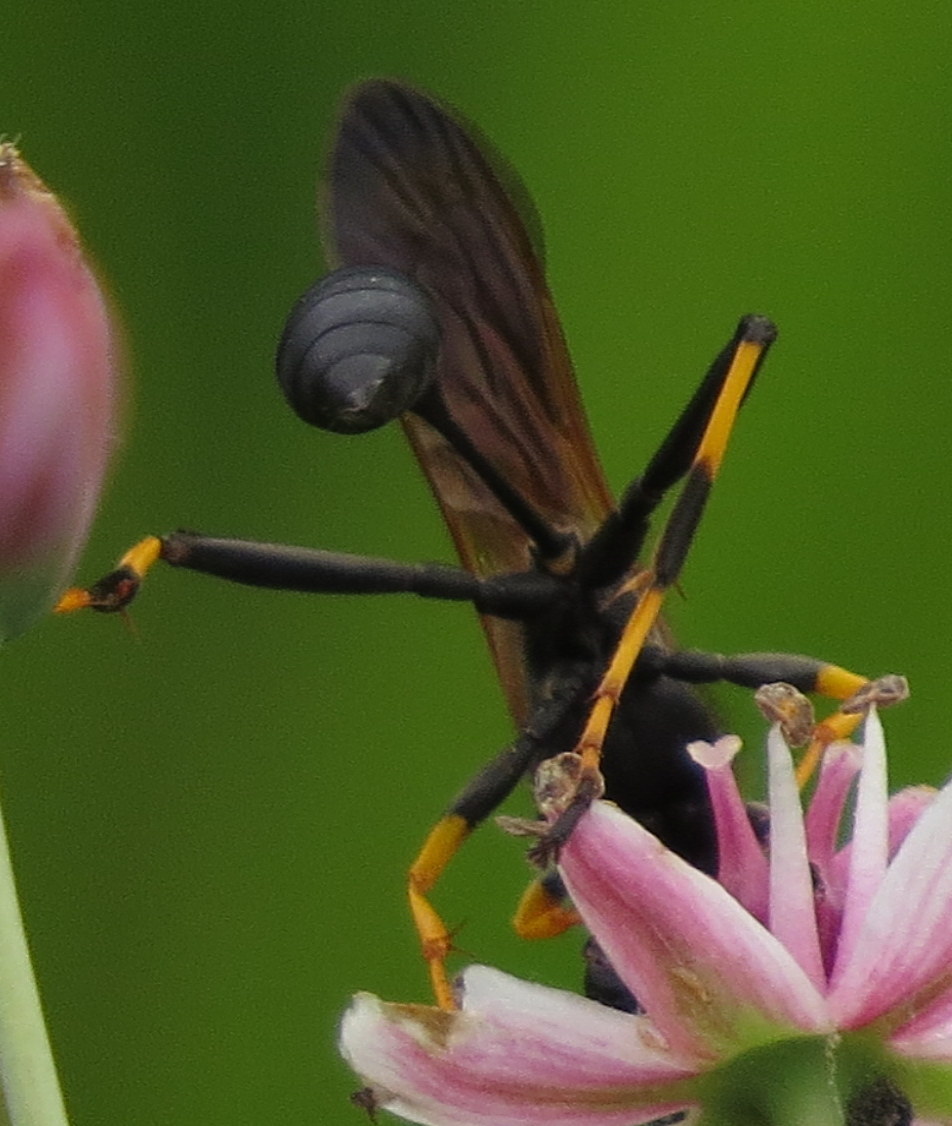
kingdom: Animalia
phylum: Arthropoda
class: Insecta
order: Hymenoptera
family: Sphecidae
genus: Sceliphron
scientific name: Sceliphron caementarium
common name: Mud dauber
